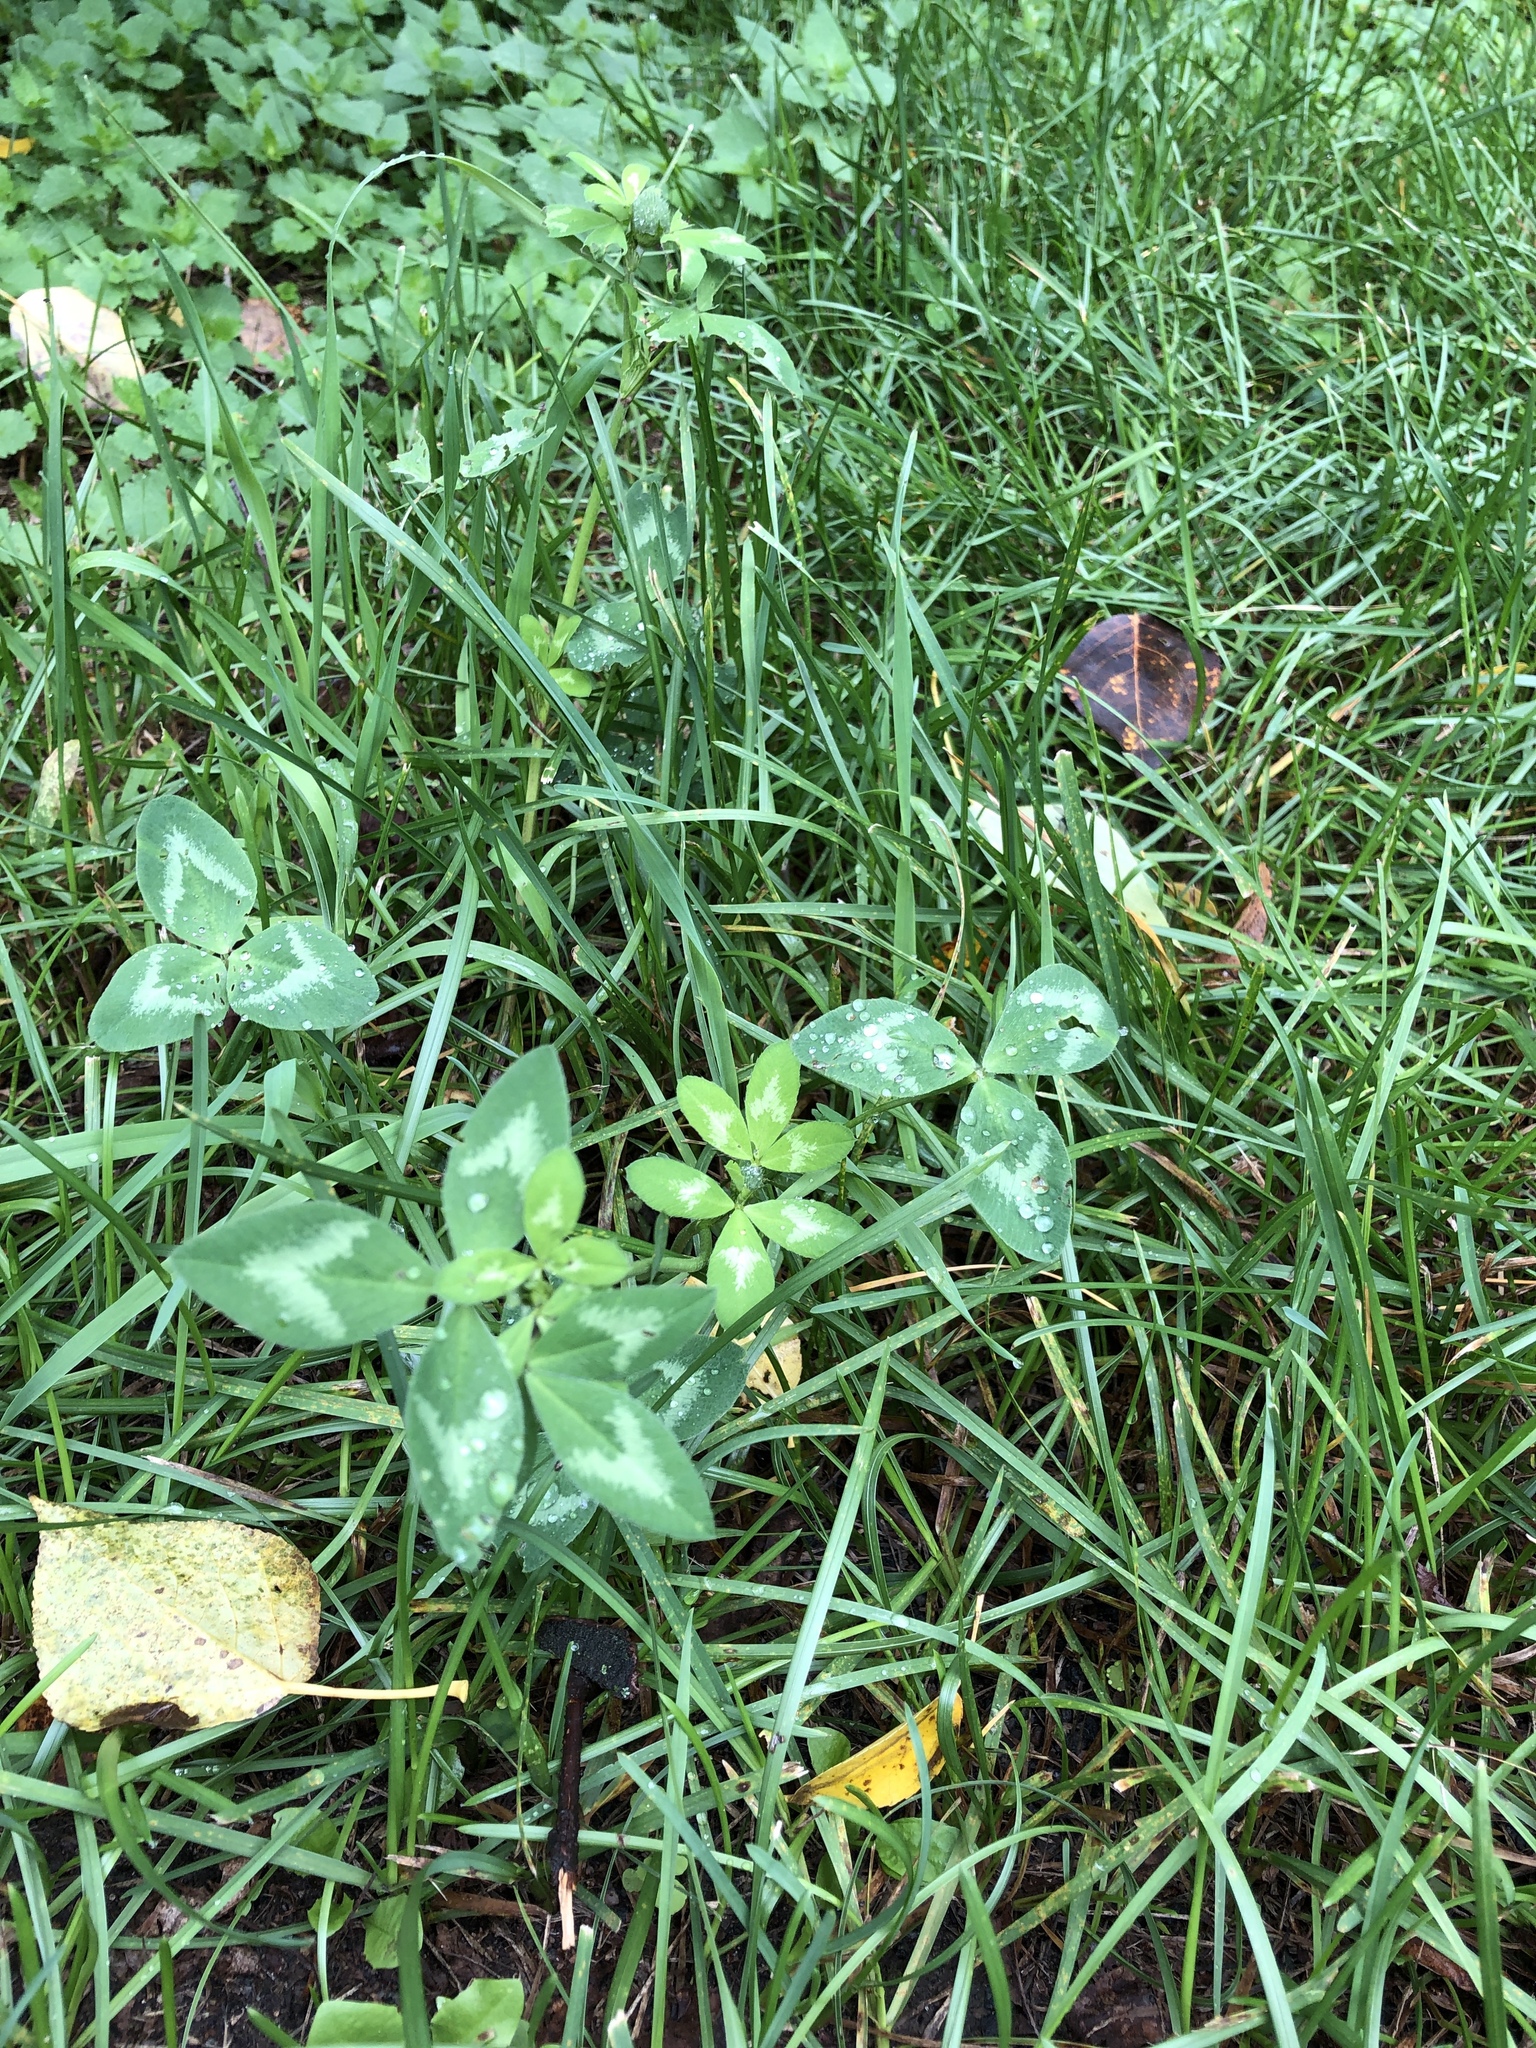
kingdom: Plantae
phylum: Tracheophyta
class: Magnoliopsida
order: Fabales
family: Fabaceae
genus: Trifolium
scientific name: Trifolium pratense
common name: Red clover
